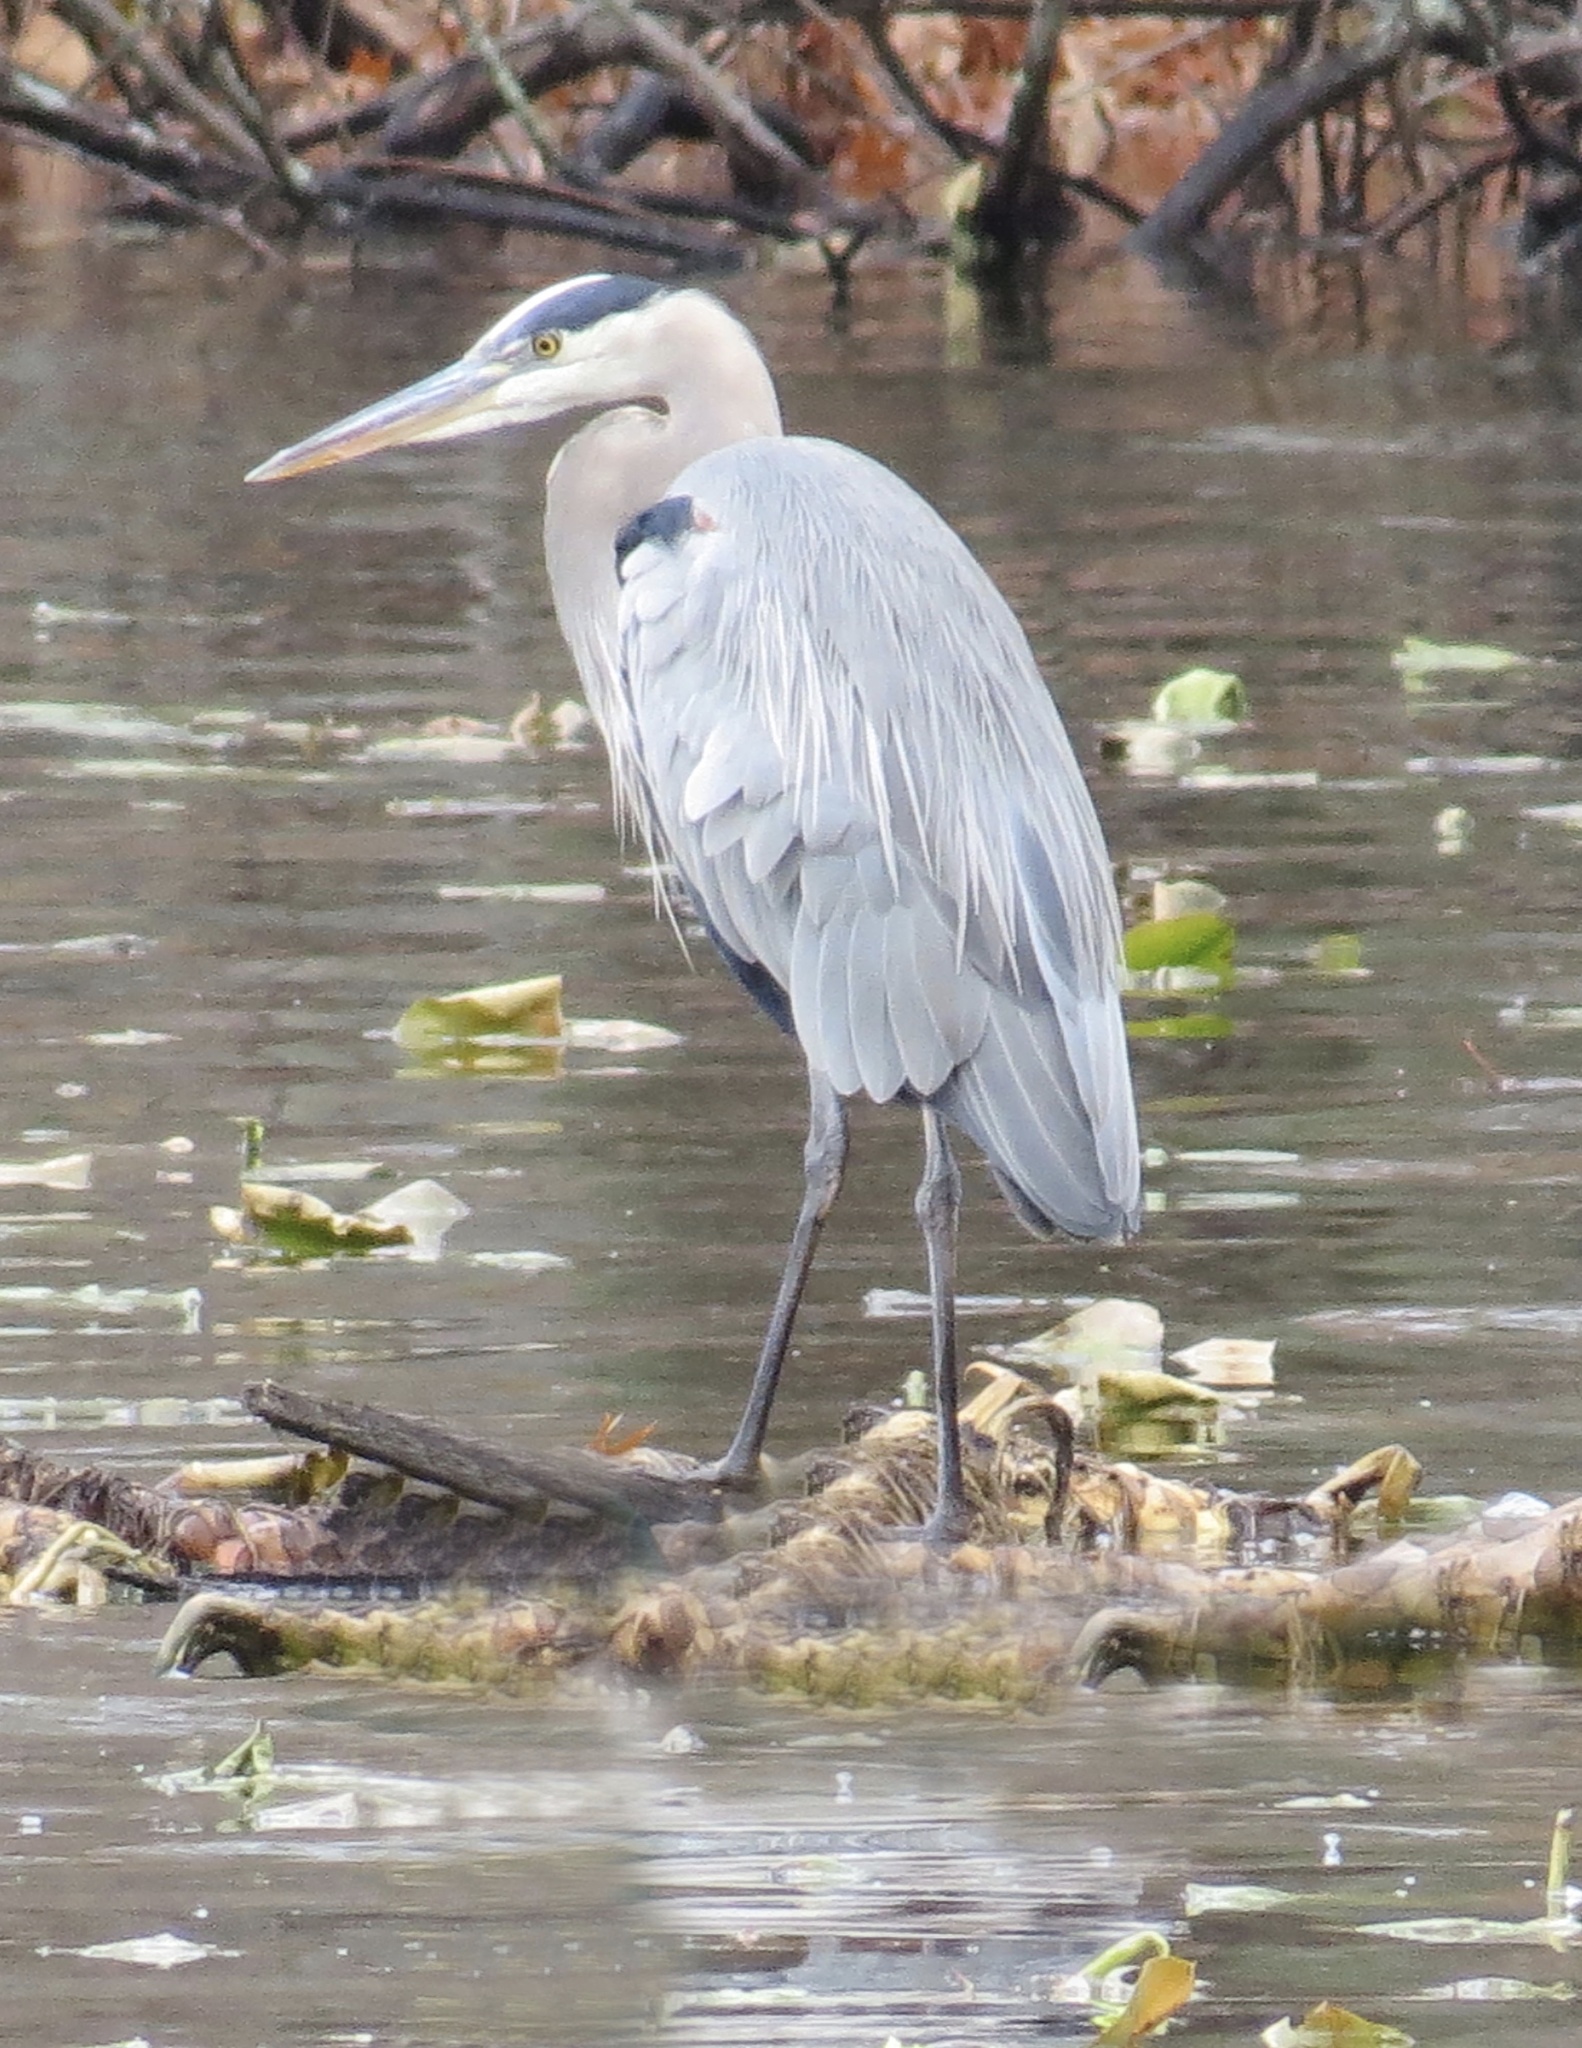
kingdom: Animalia
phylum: Chordata
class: Aves
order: Pelecaniformes
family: Ardeidae
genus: Ardea
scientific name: Ardea herodias
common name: Great blue heron
